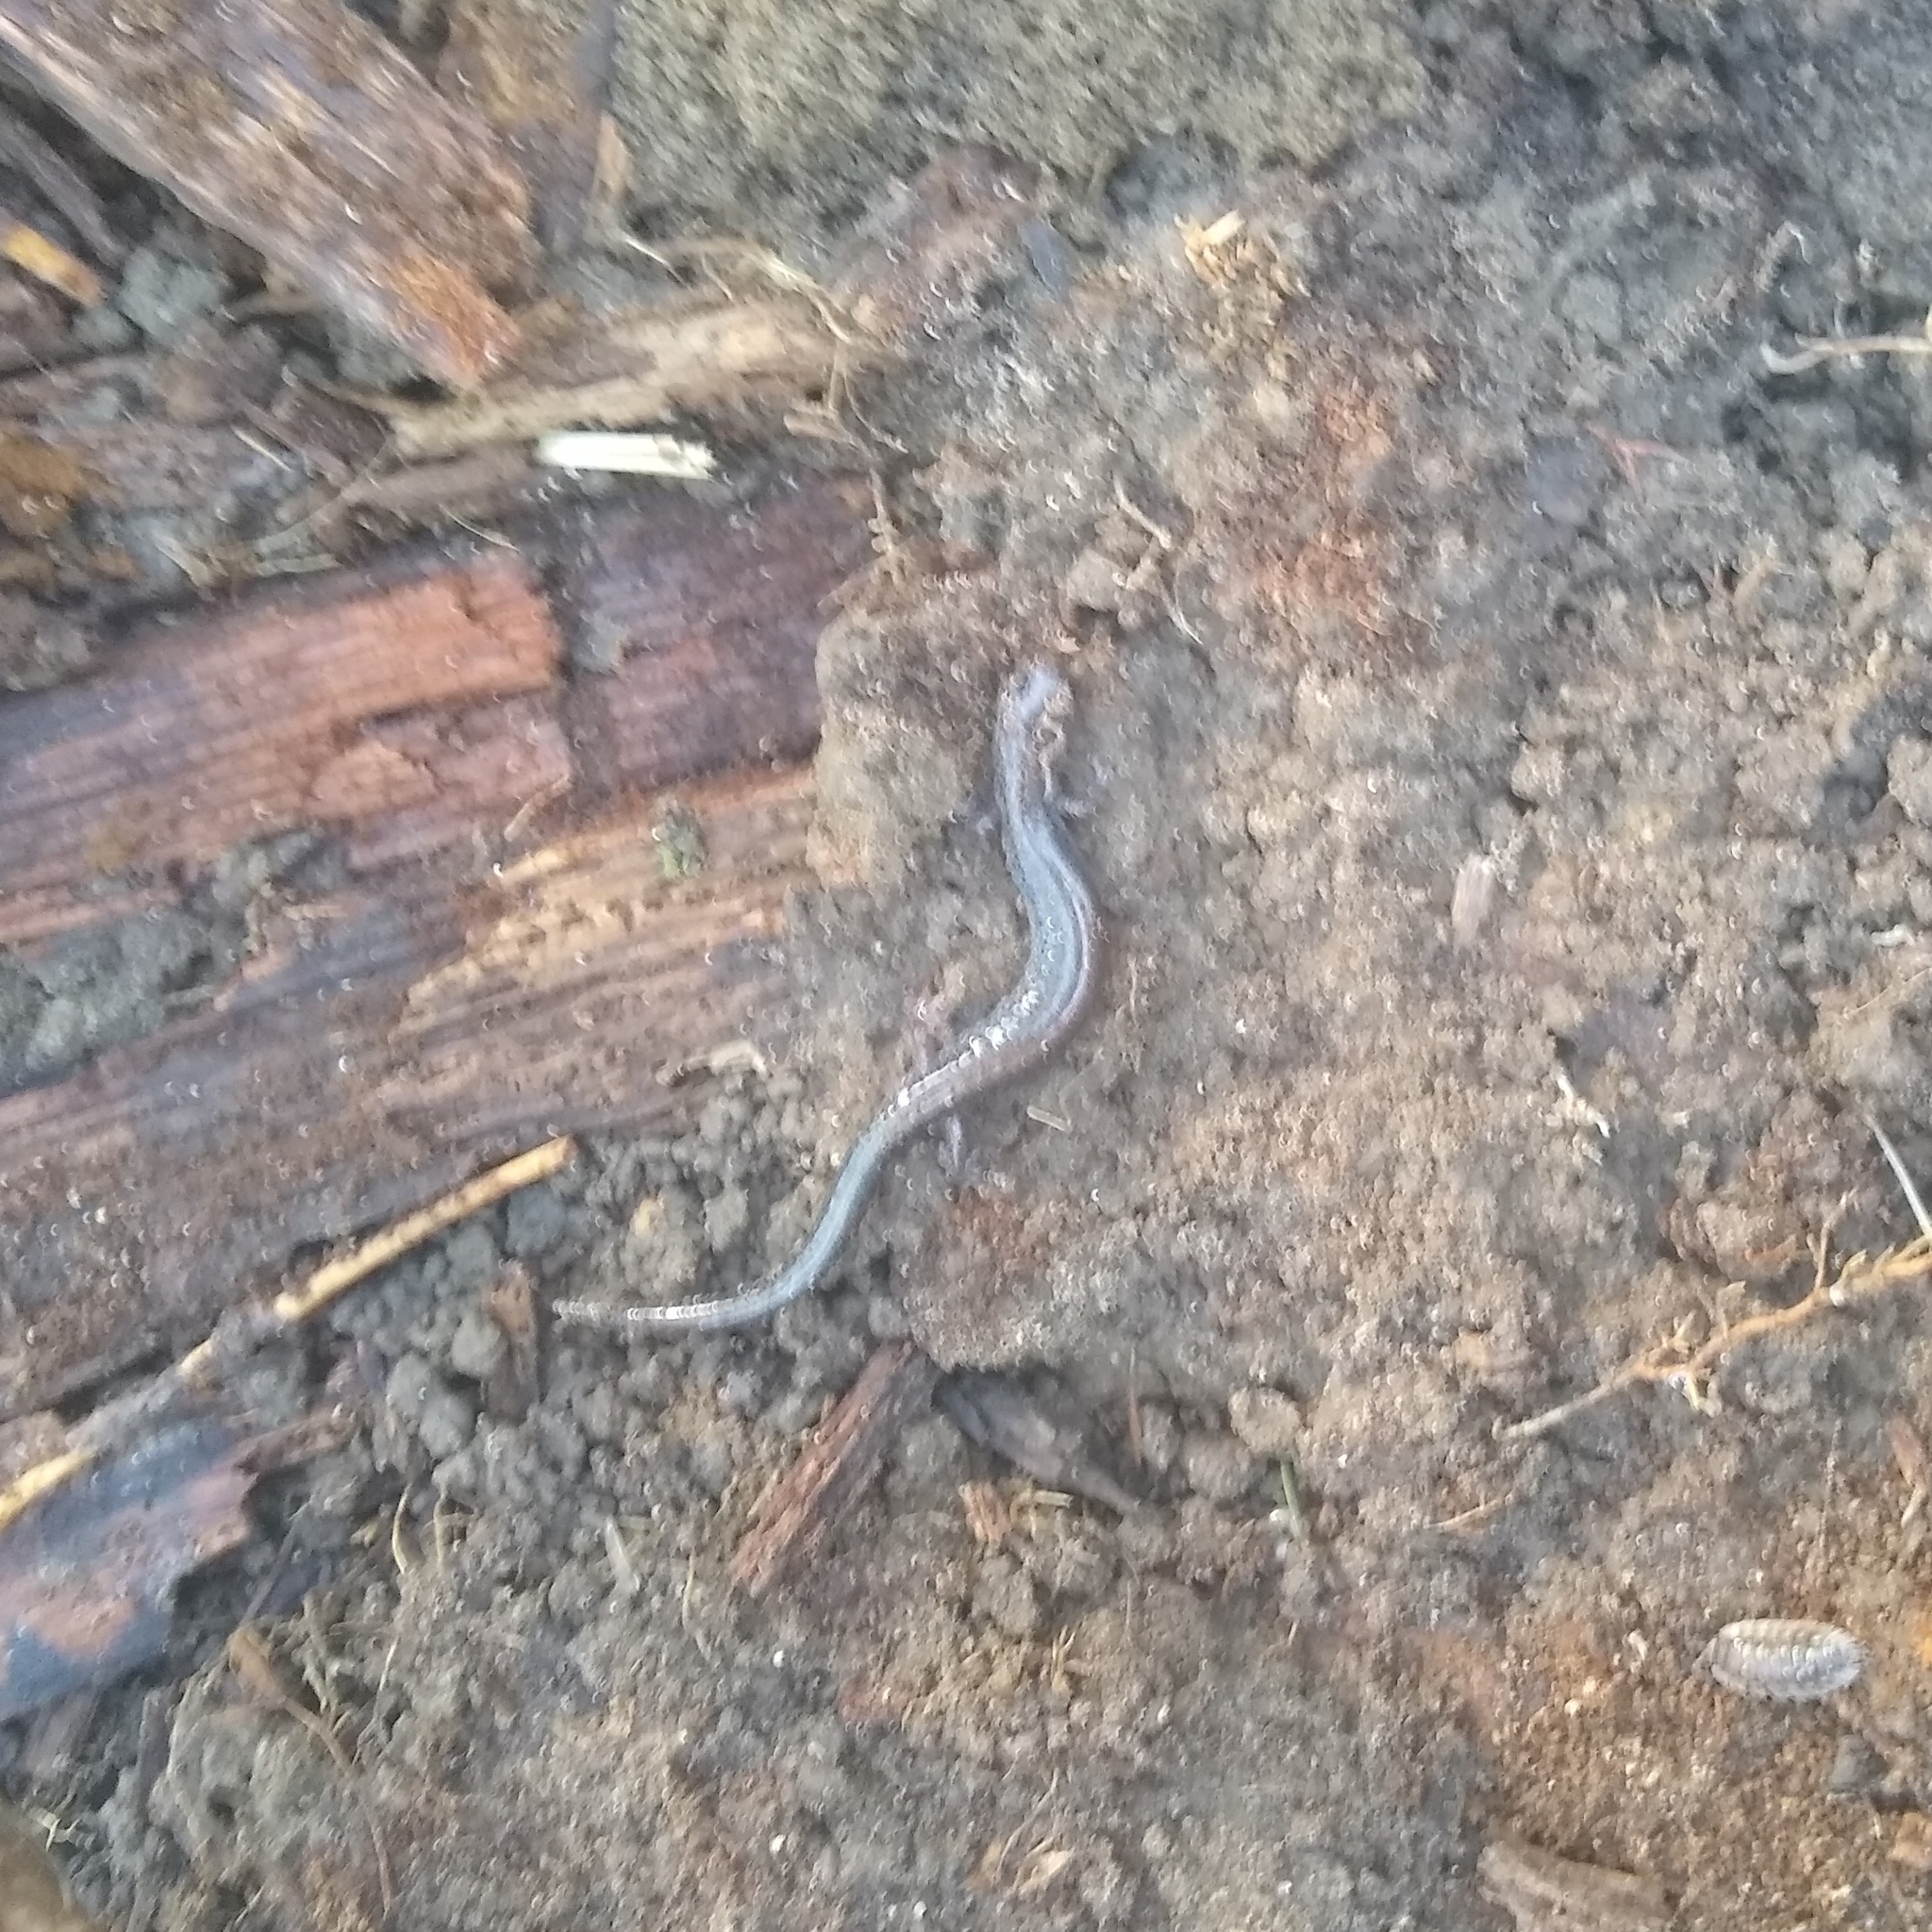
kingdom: Animalia
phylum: Chordata
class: Amphibia
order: Caudata
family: Plethodontidae
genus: Plethodon
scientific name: Plethodon cinereus
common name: Redback salamander
